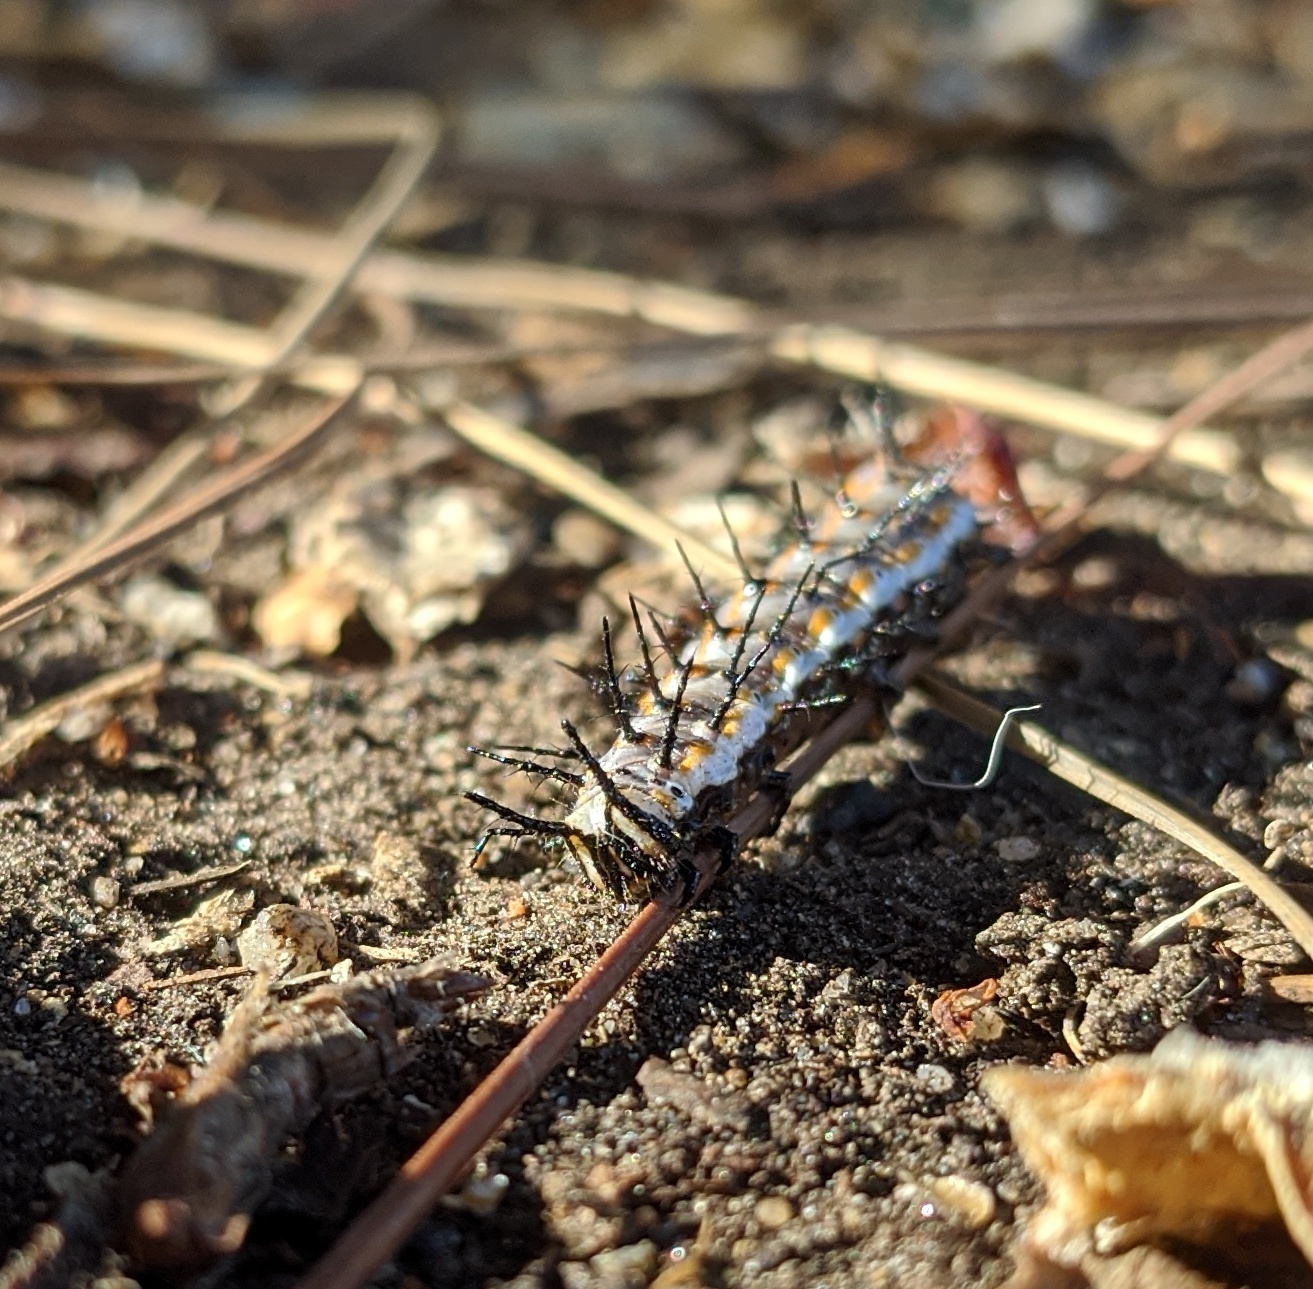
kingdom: Animalia
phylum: Arthropoda
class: Insecta
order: Lepidoptera
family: Nymphalidae
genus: Dione
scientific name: Dione vanillae
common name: Gulf fritillary
